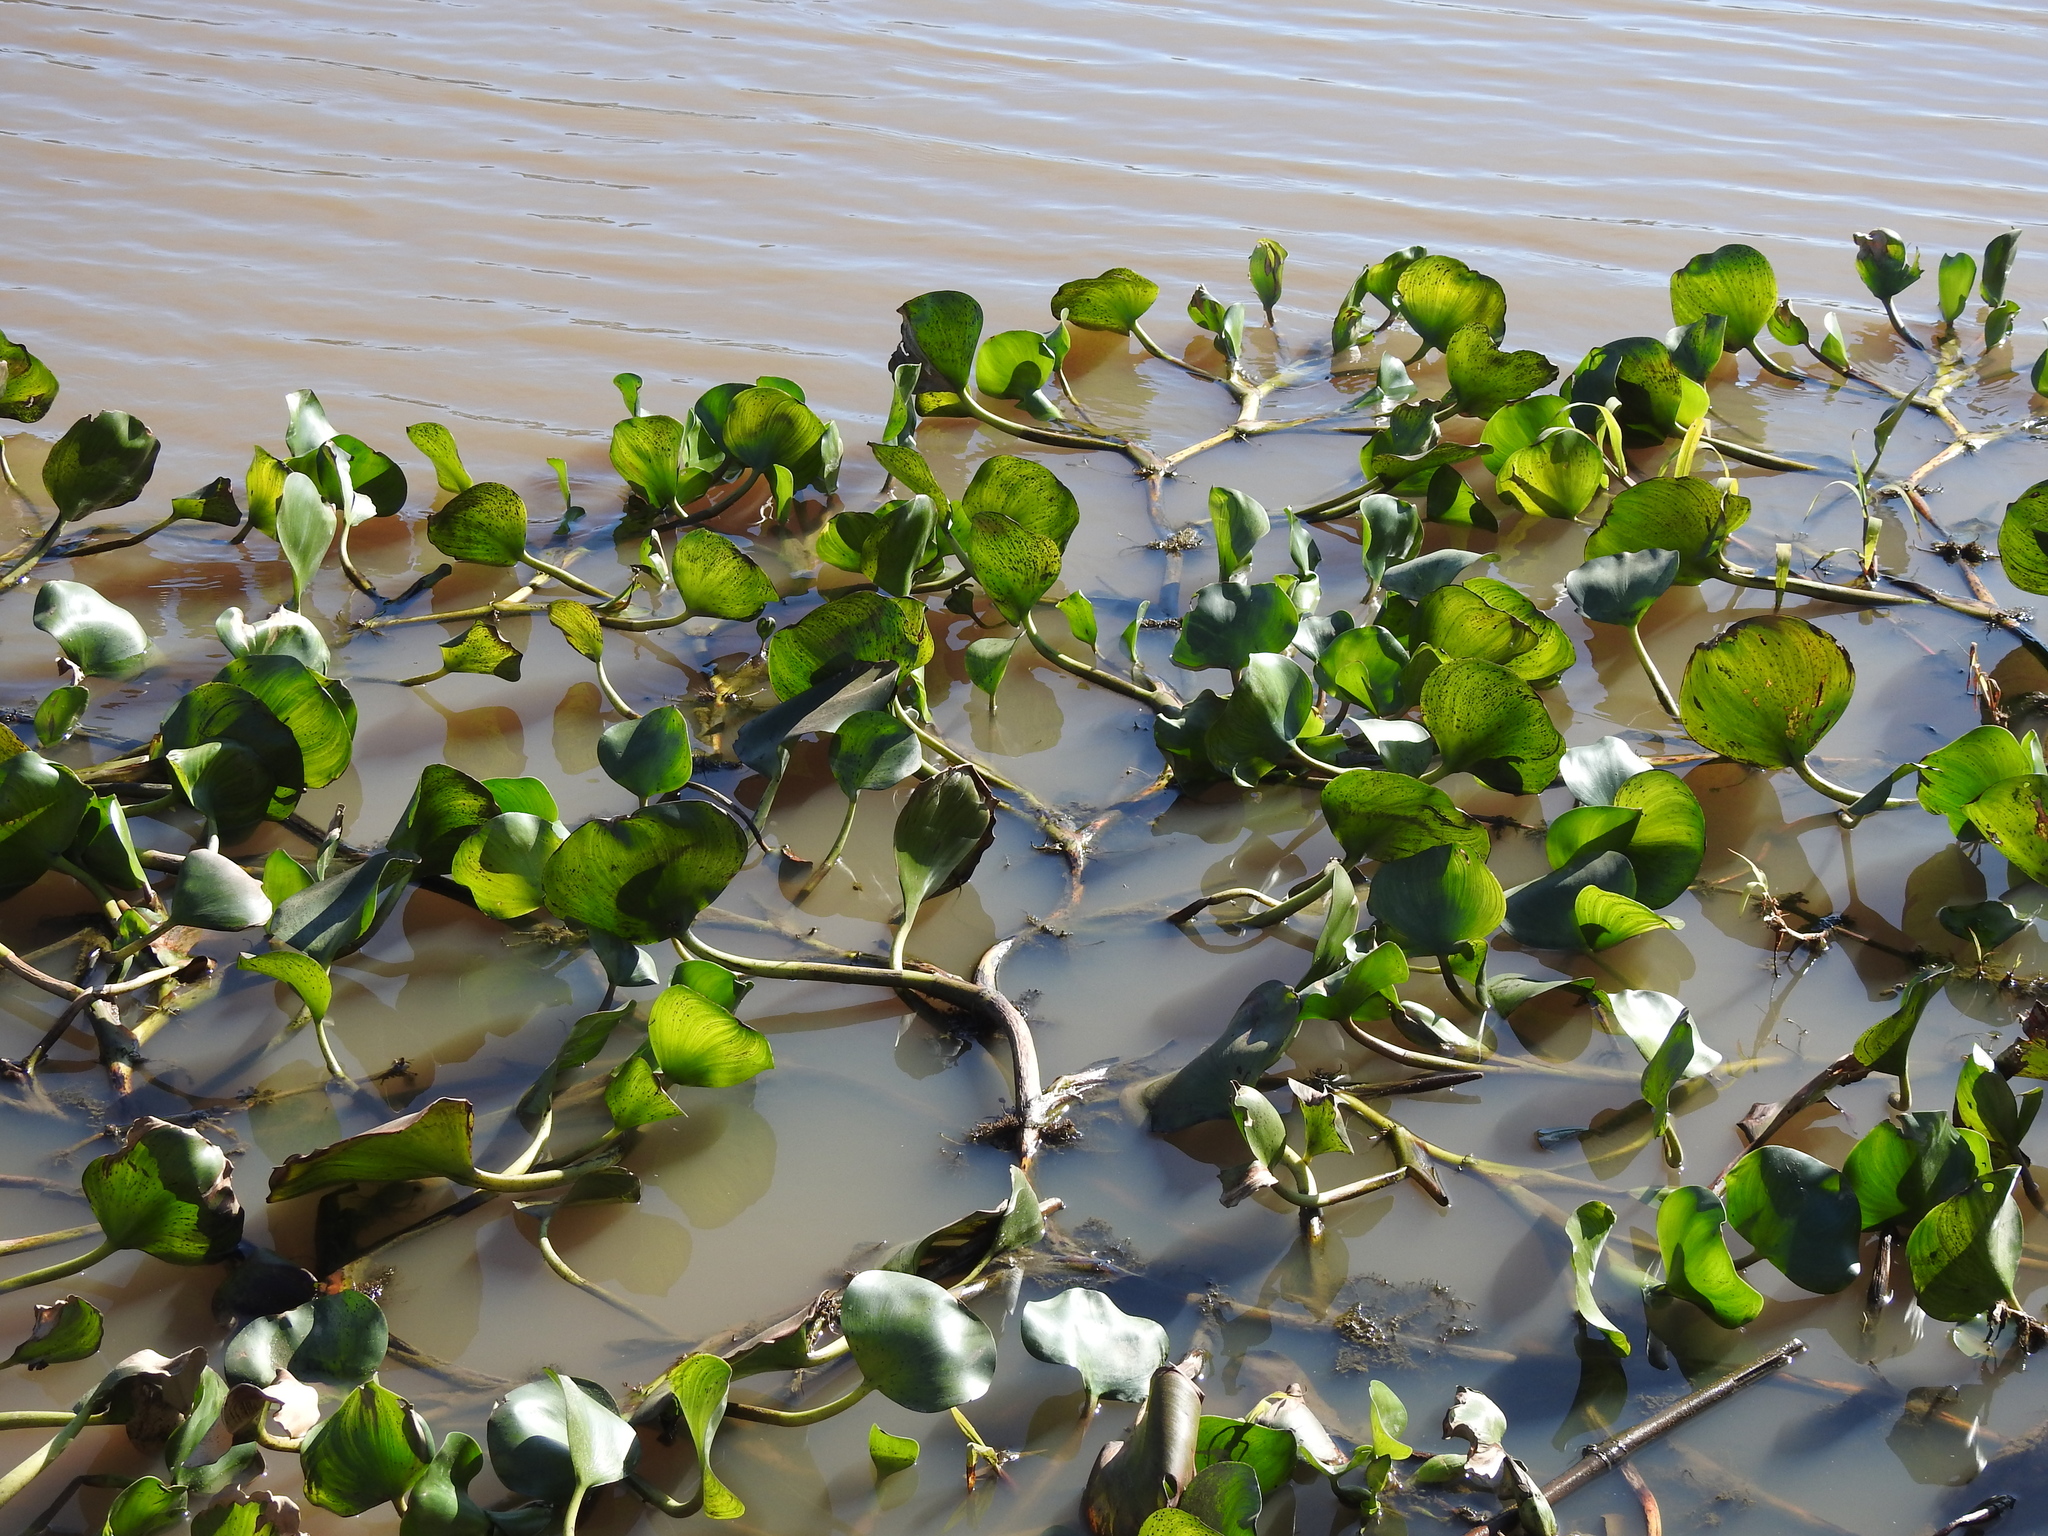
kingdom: Plantae
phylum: Tracheophyta
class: Liliopsida
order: Commelinales
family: Pontederiaceae
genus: Pontederia
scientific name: Pontederia azurea
